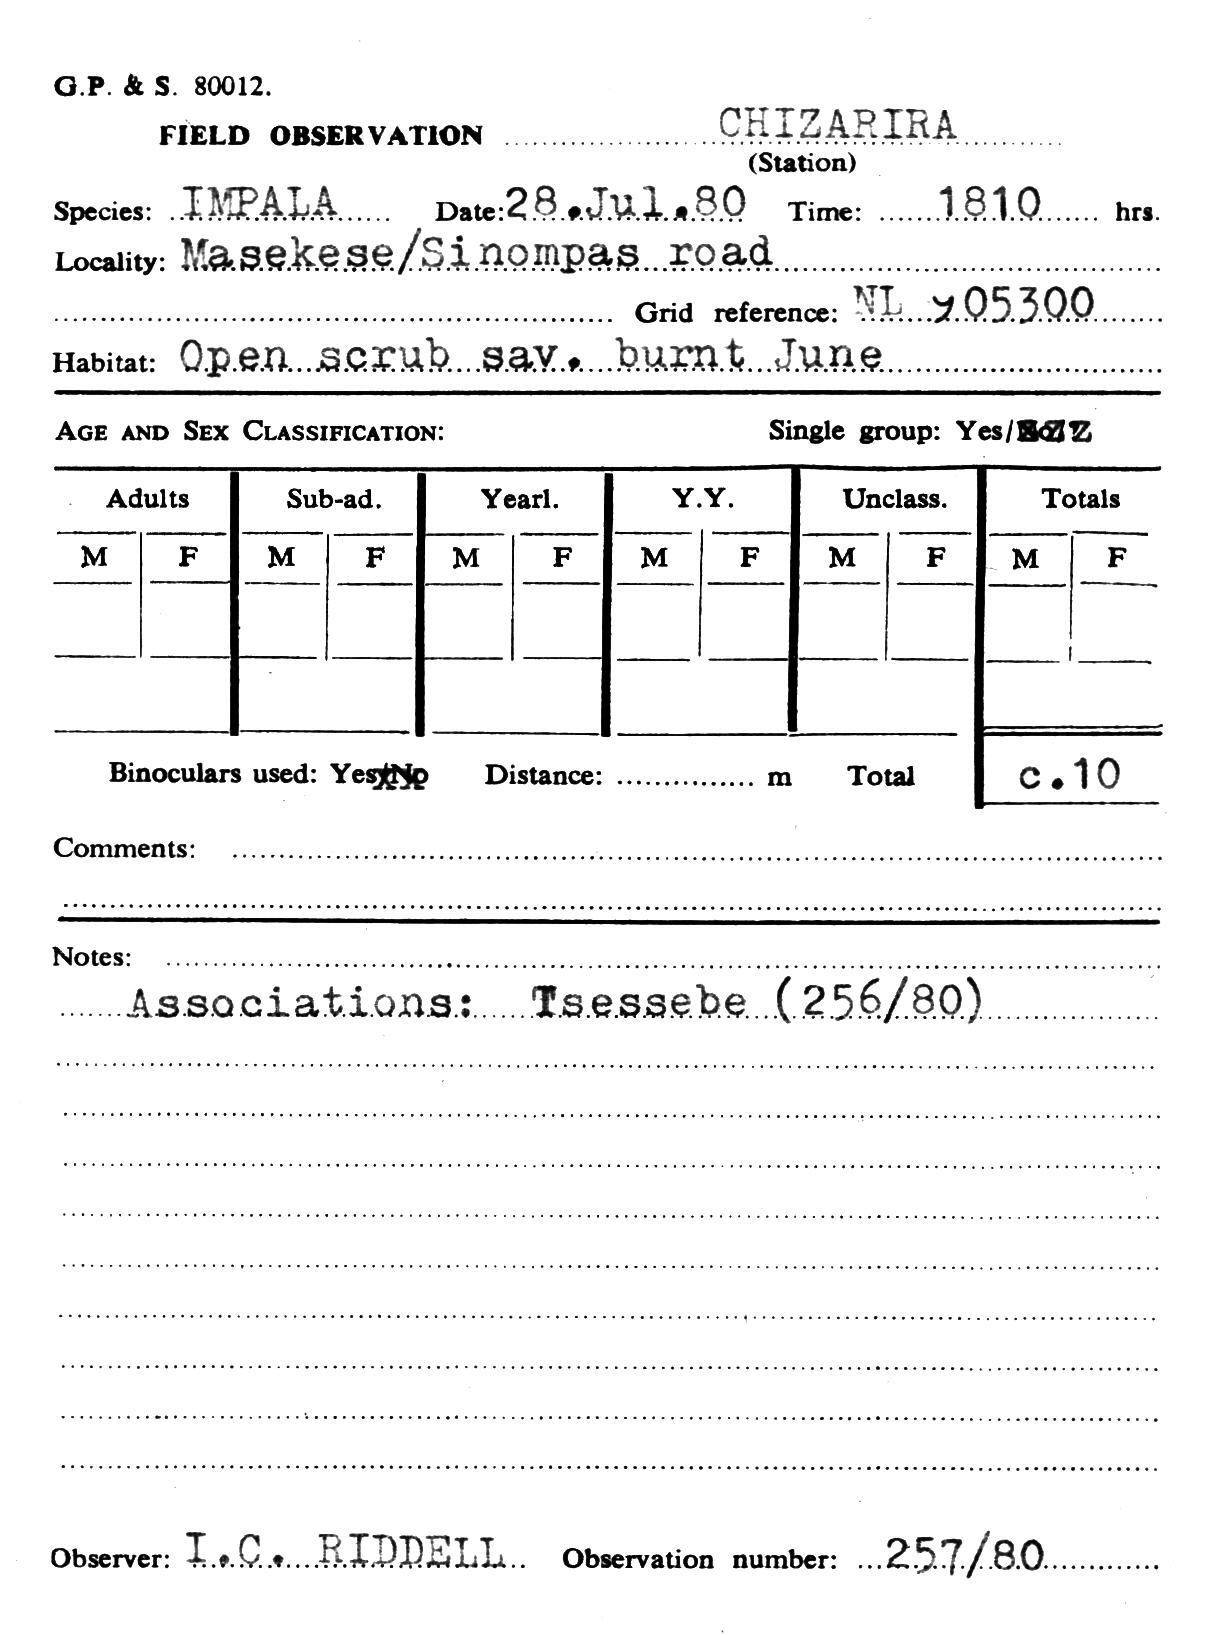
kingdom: Animalia
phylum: Chordata
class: Mammalia
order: Artiodactyla
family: Bovidae
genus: Aepyceros
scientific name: Aepyceros melampus
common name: Impala
